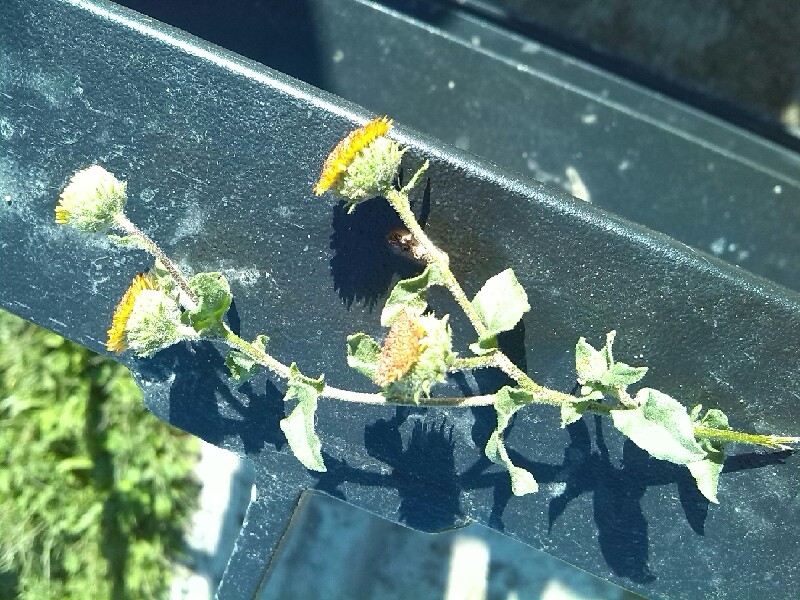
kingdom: Plantae
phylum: Tracheophyta
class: Magnoliopsida
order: Asterales
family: Asteraceae
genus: Pulicaria
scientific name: Pulicaria vulgaris
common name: Small fleabane
